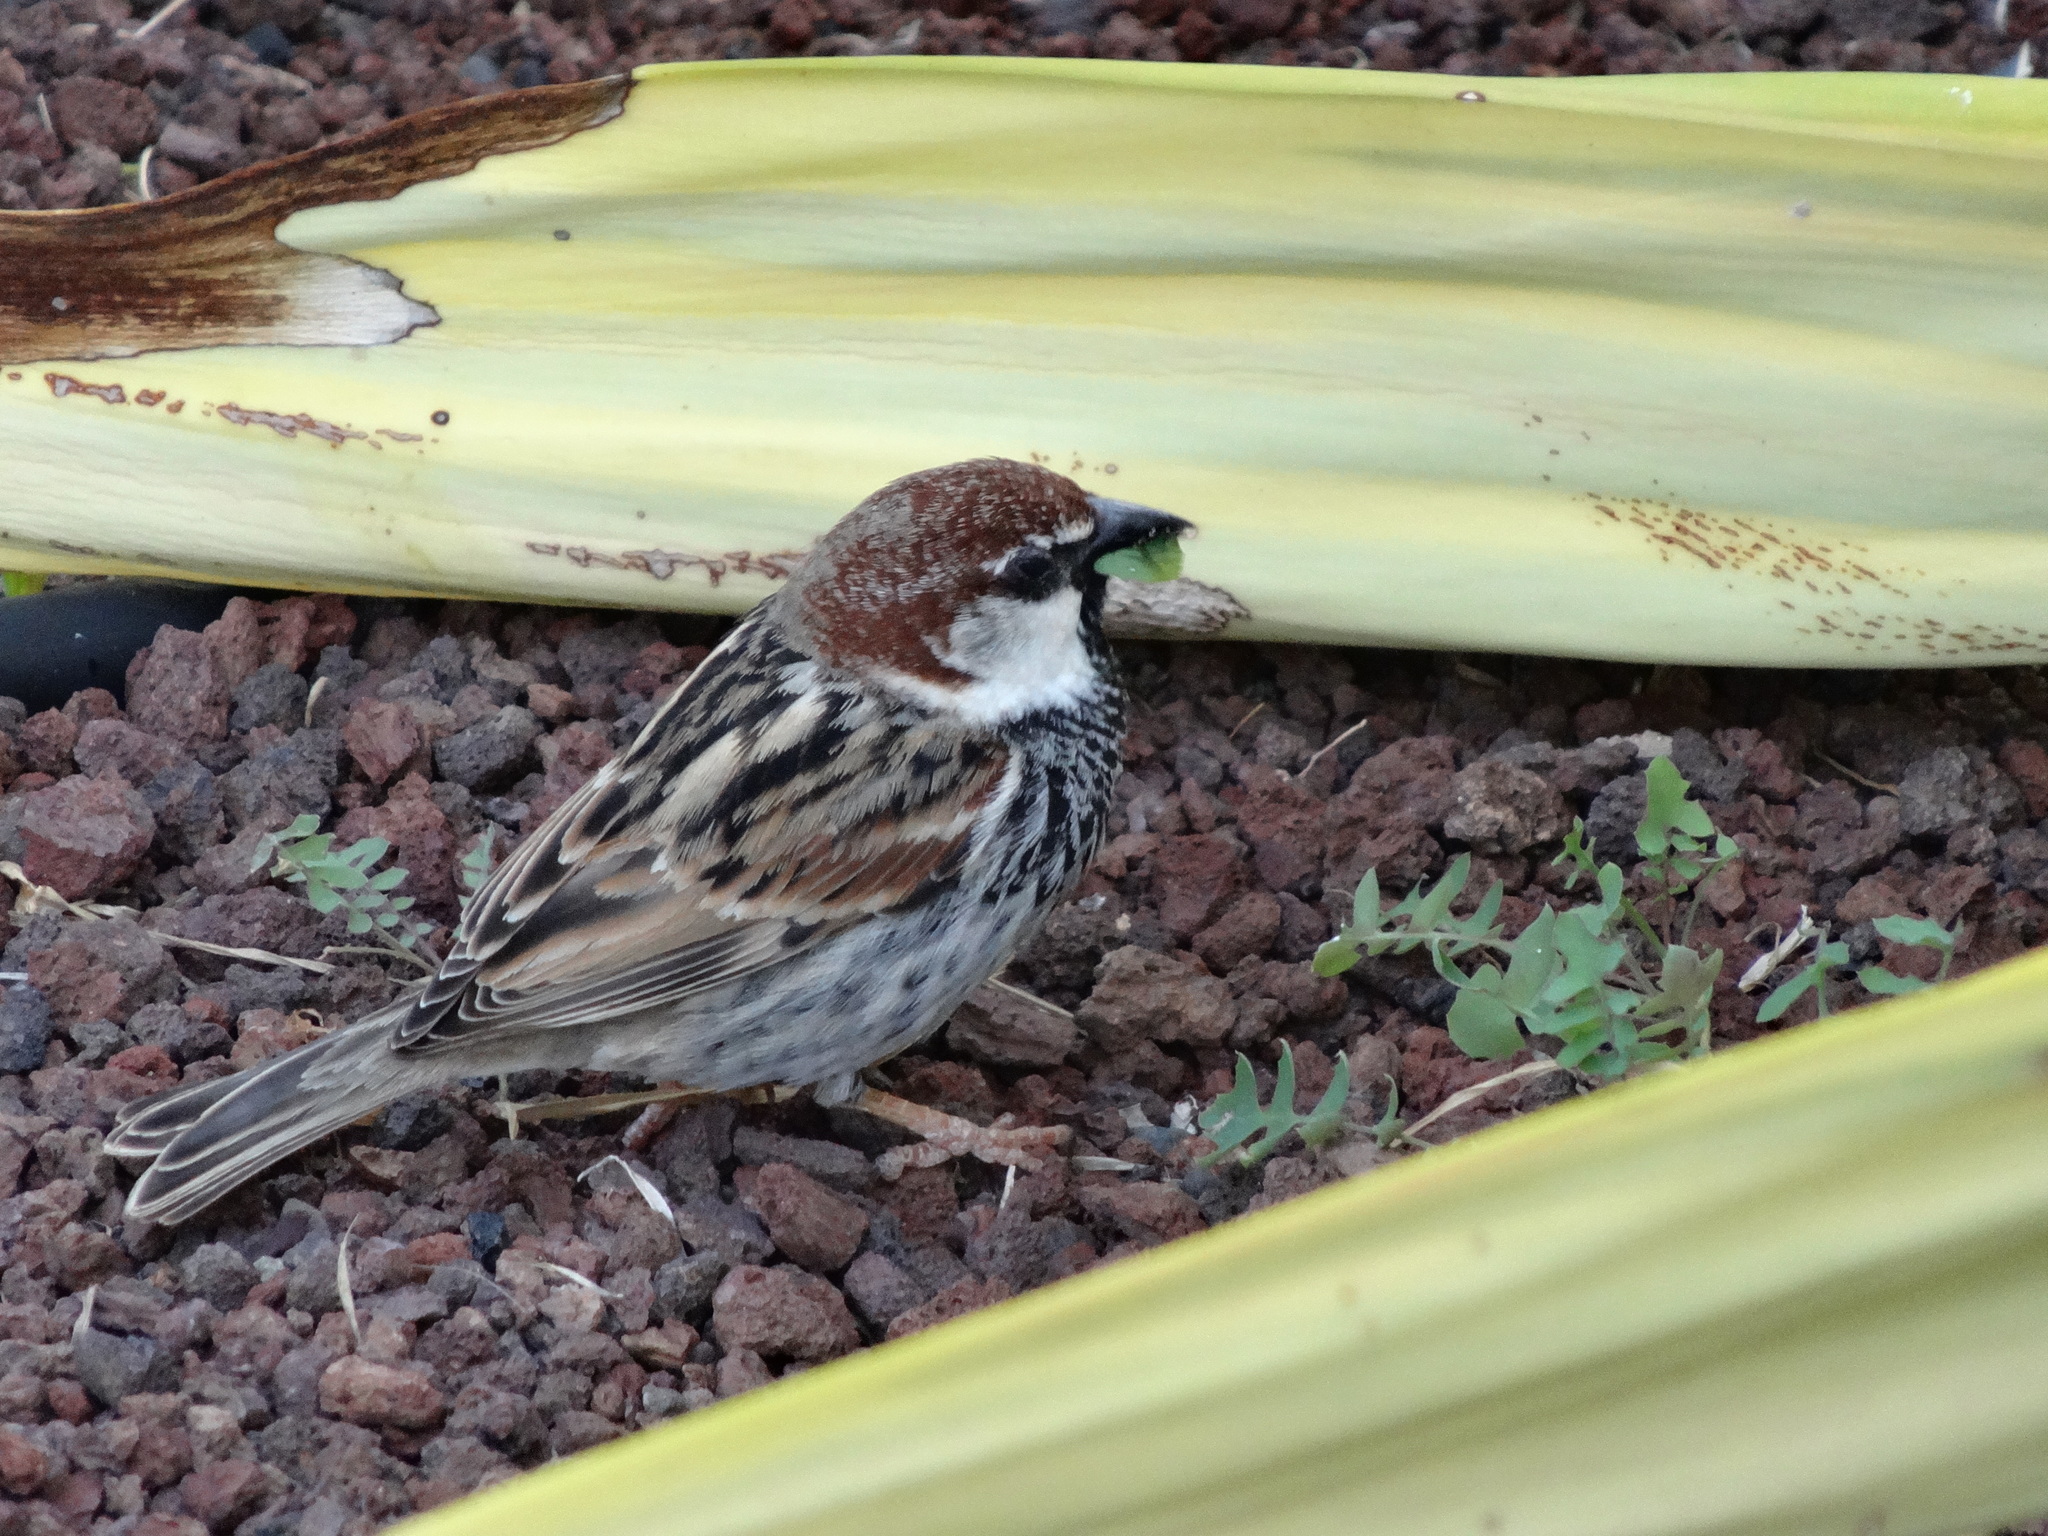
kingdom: Animalia
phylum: Chordata
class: Aves
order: Passeriformes
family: Passeridae
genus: Passer
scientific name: Passer hispaniolensis
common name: Spanish sparrow
